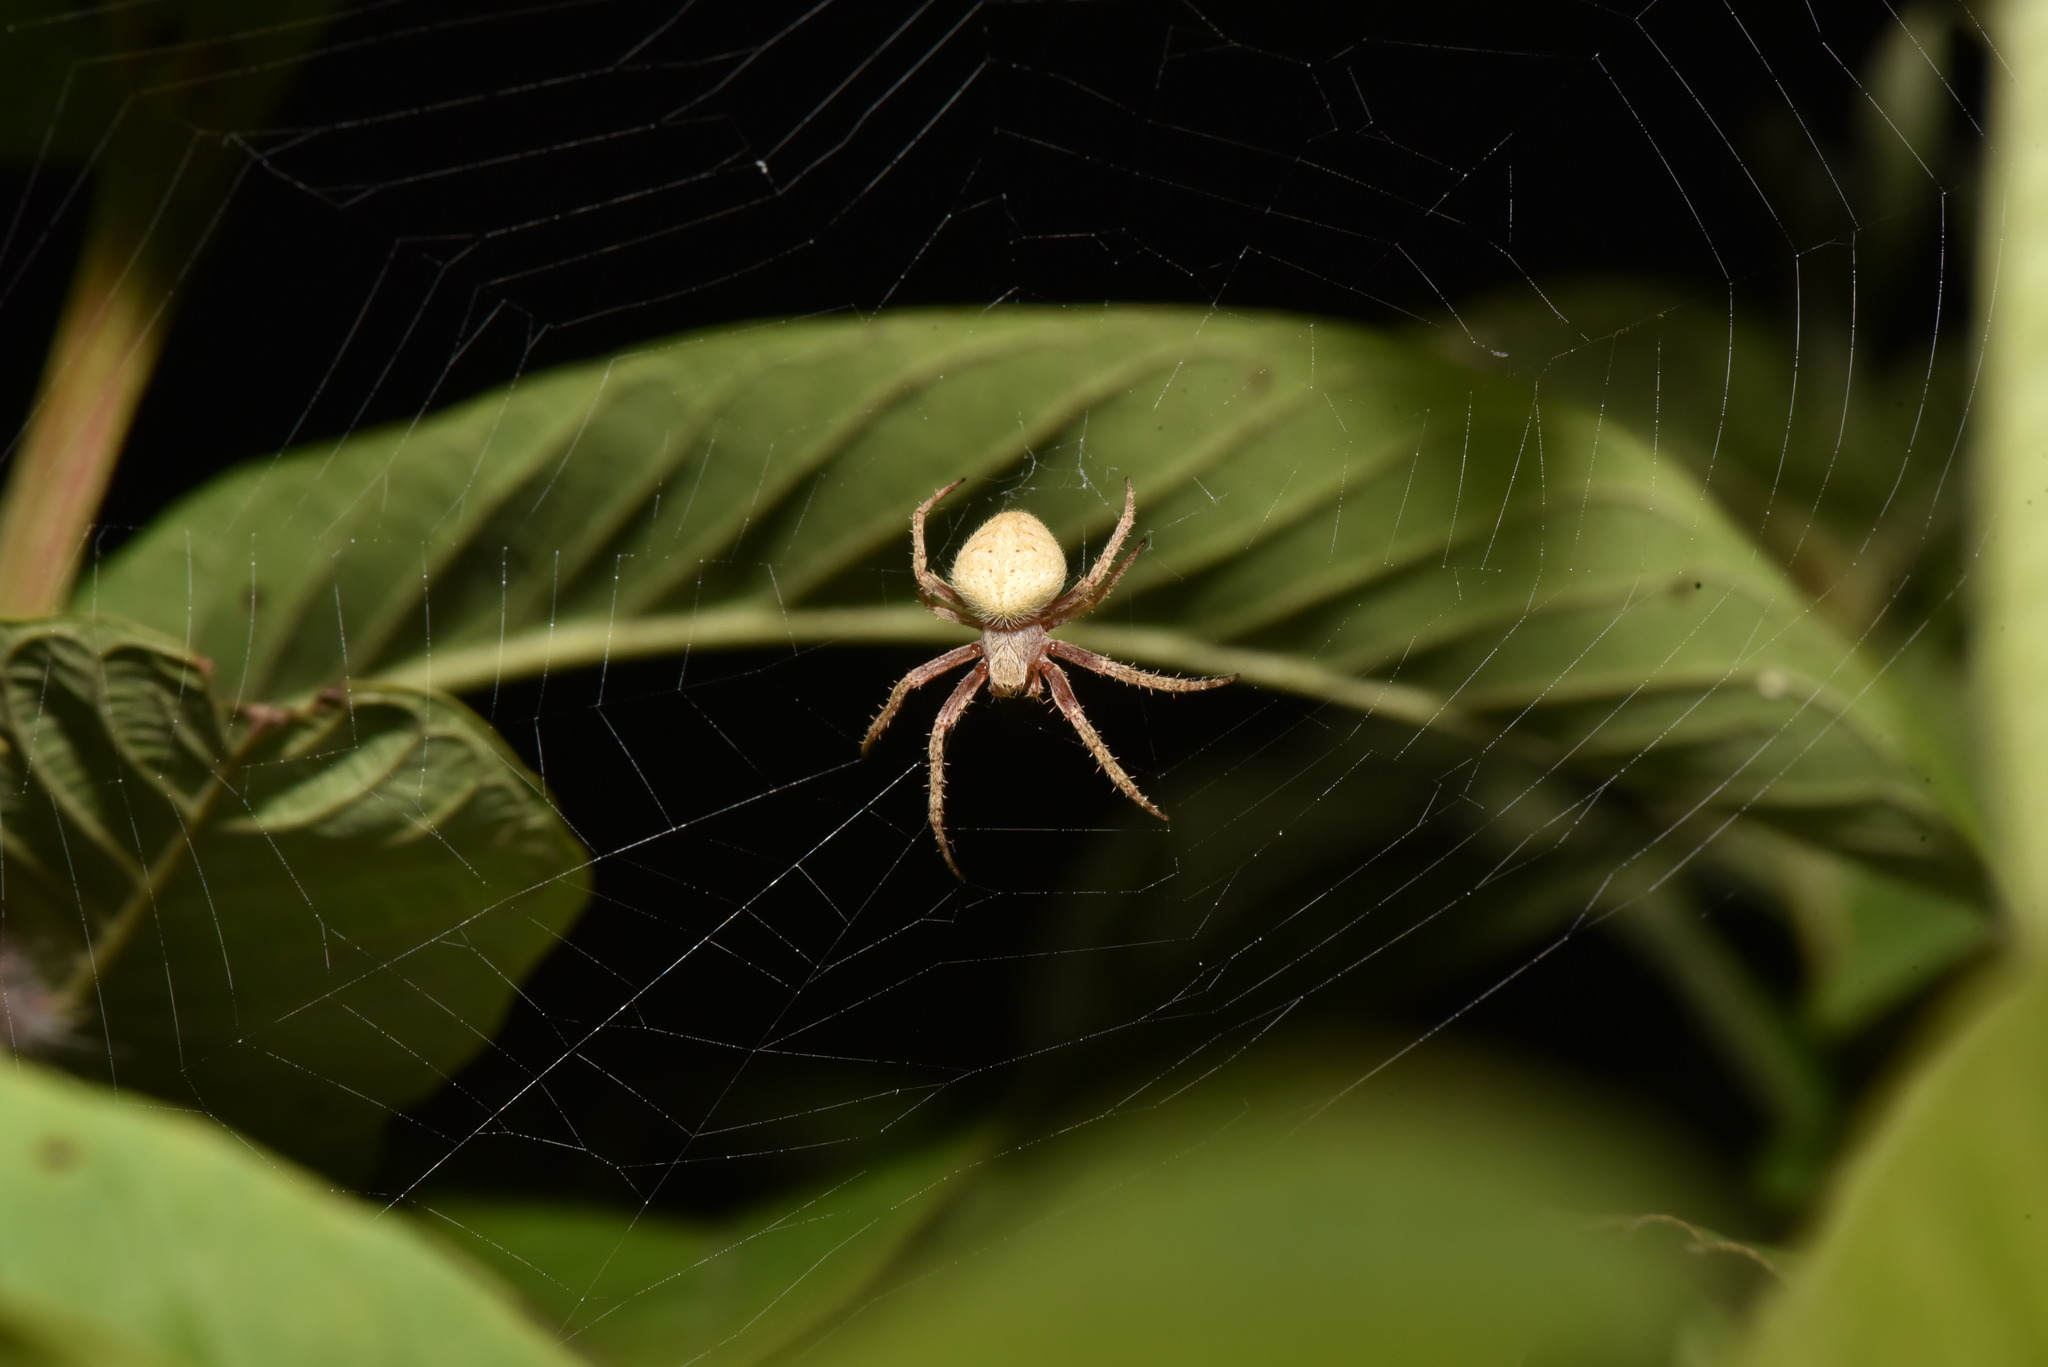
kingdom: Animalia
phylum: Arthropoda
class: Arachnida
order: Araneae
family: Araneidae
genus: Neoscona
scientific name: Neoscona punctigera
